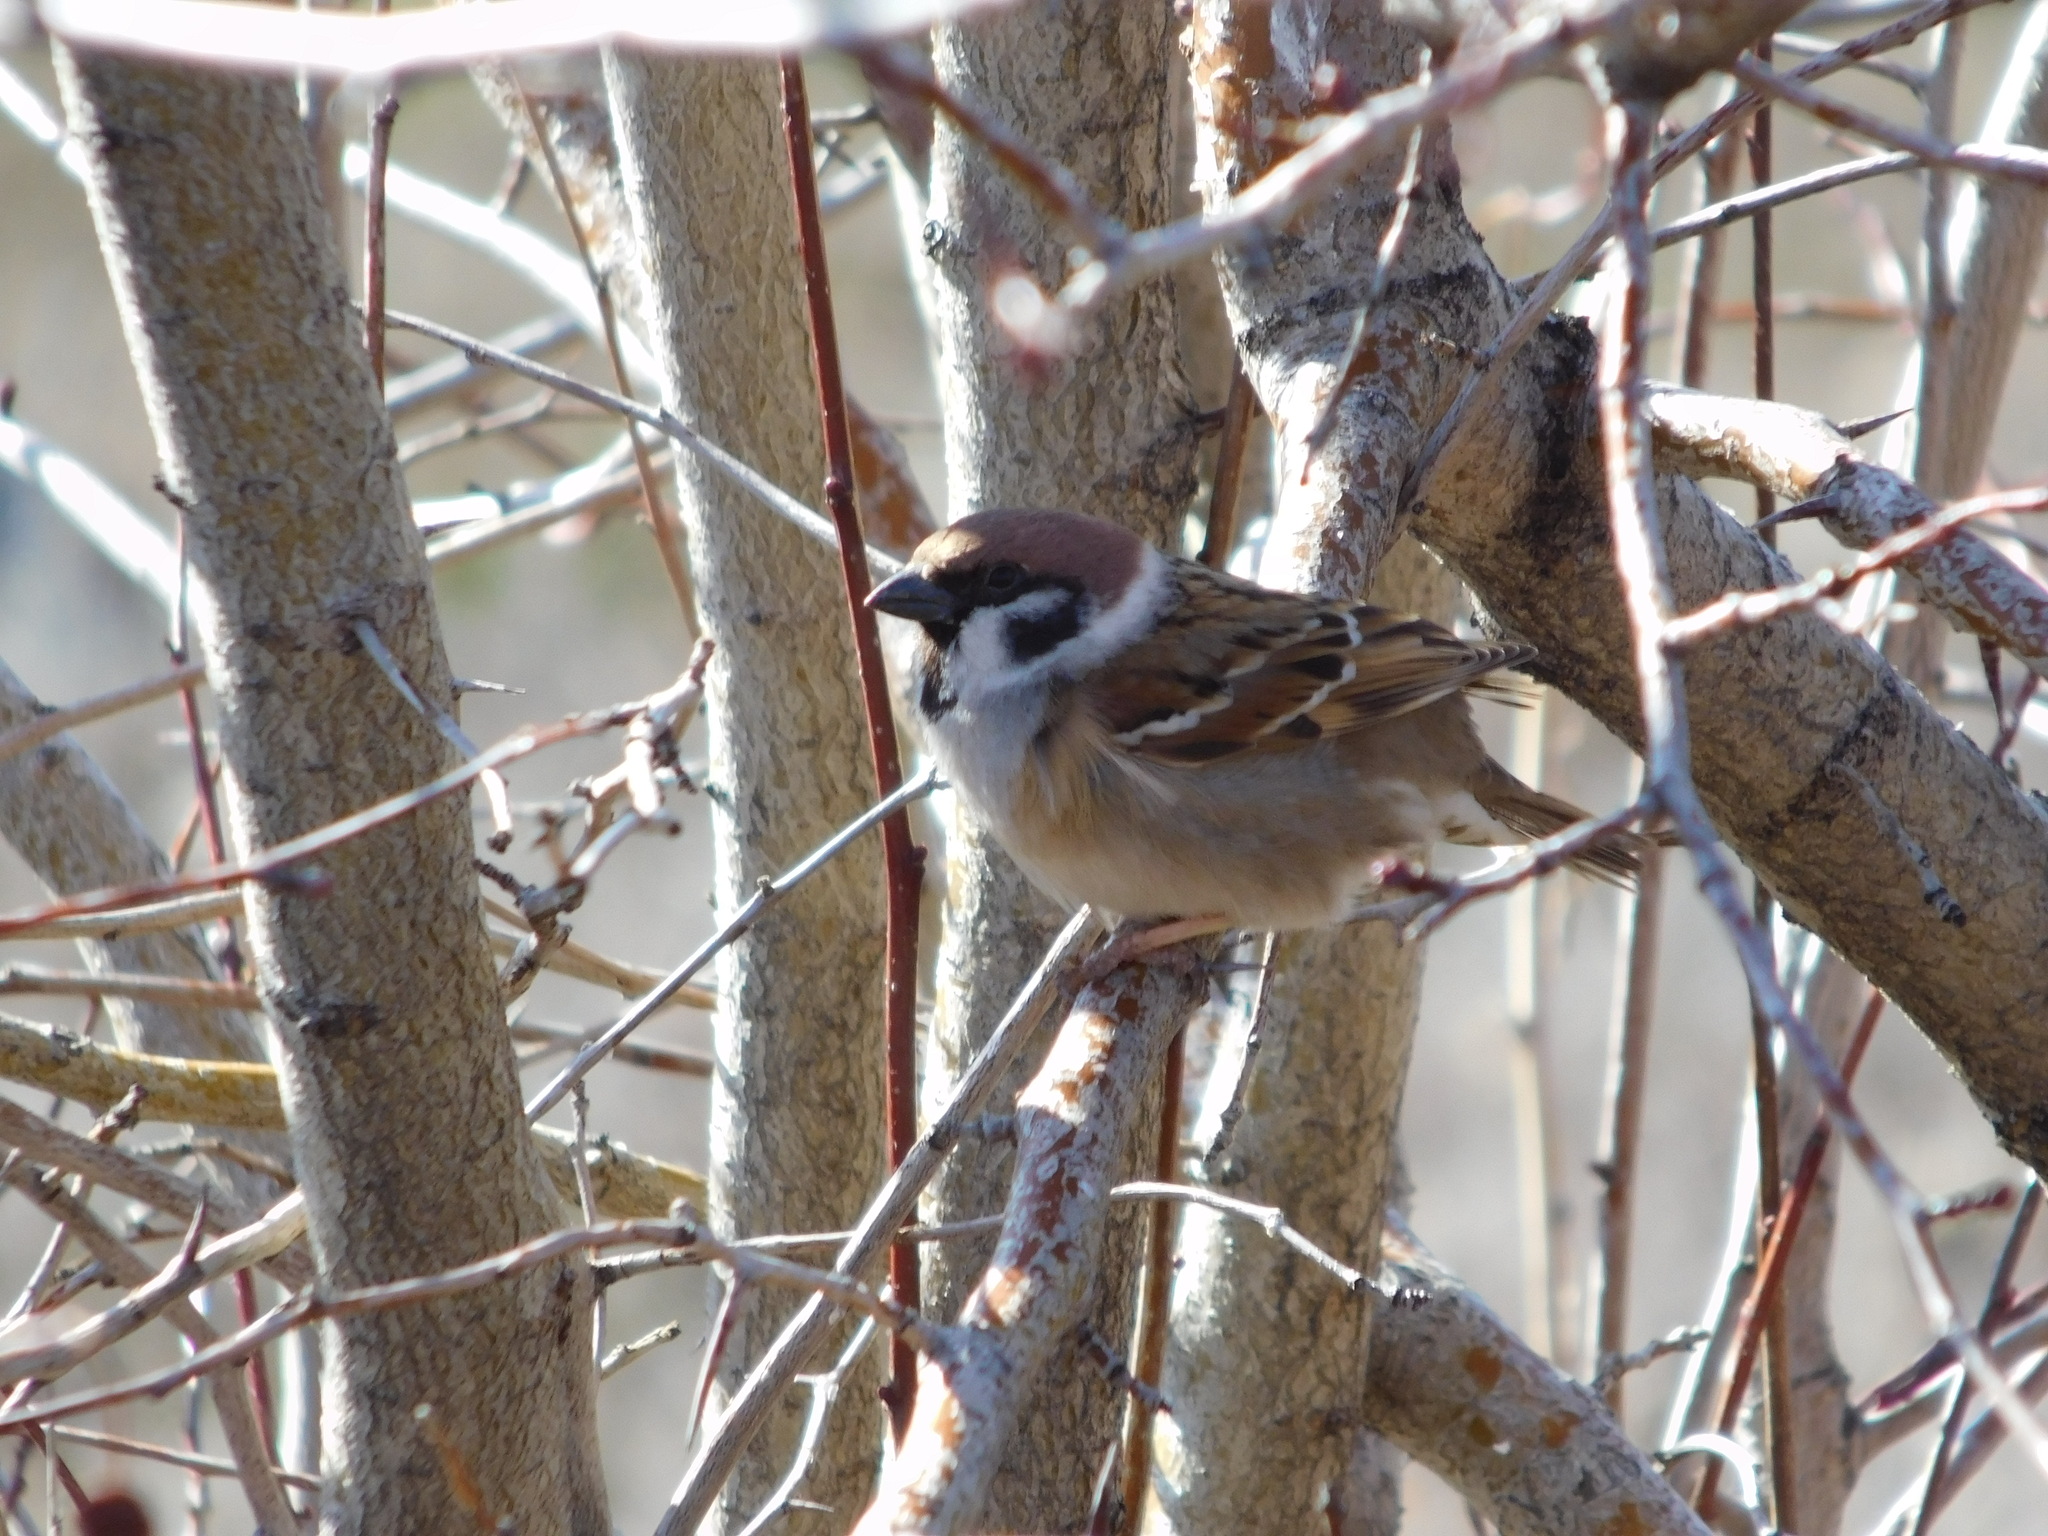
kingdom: Animalia
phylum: Chordata
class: Aves
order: Passeriformes
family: Passeridae
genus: Passer
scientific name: Passer montanus
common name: Eurasian tree sparrow
